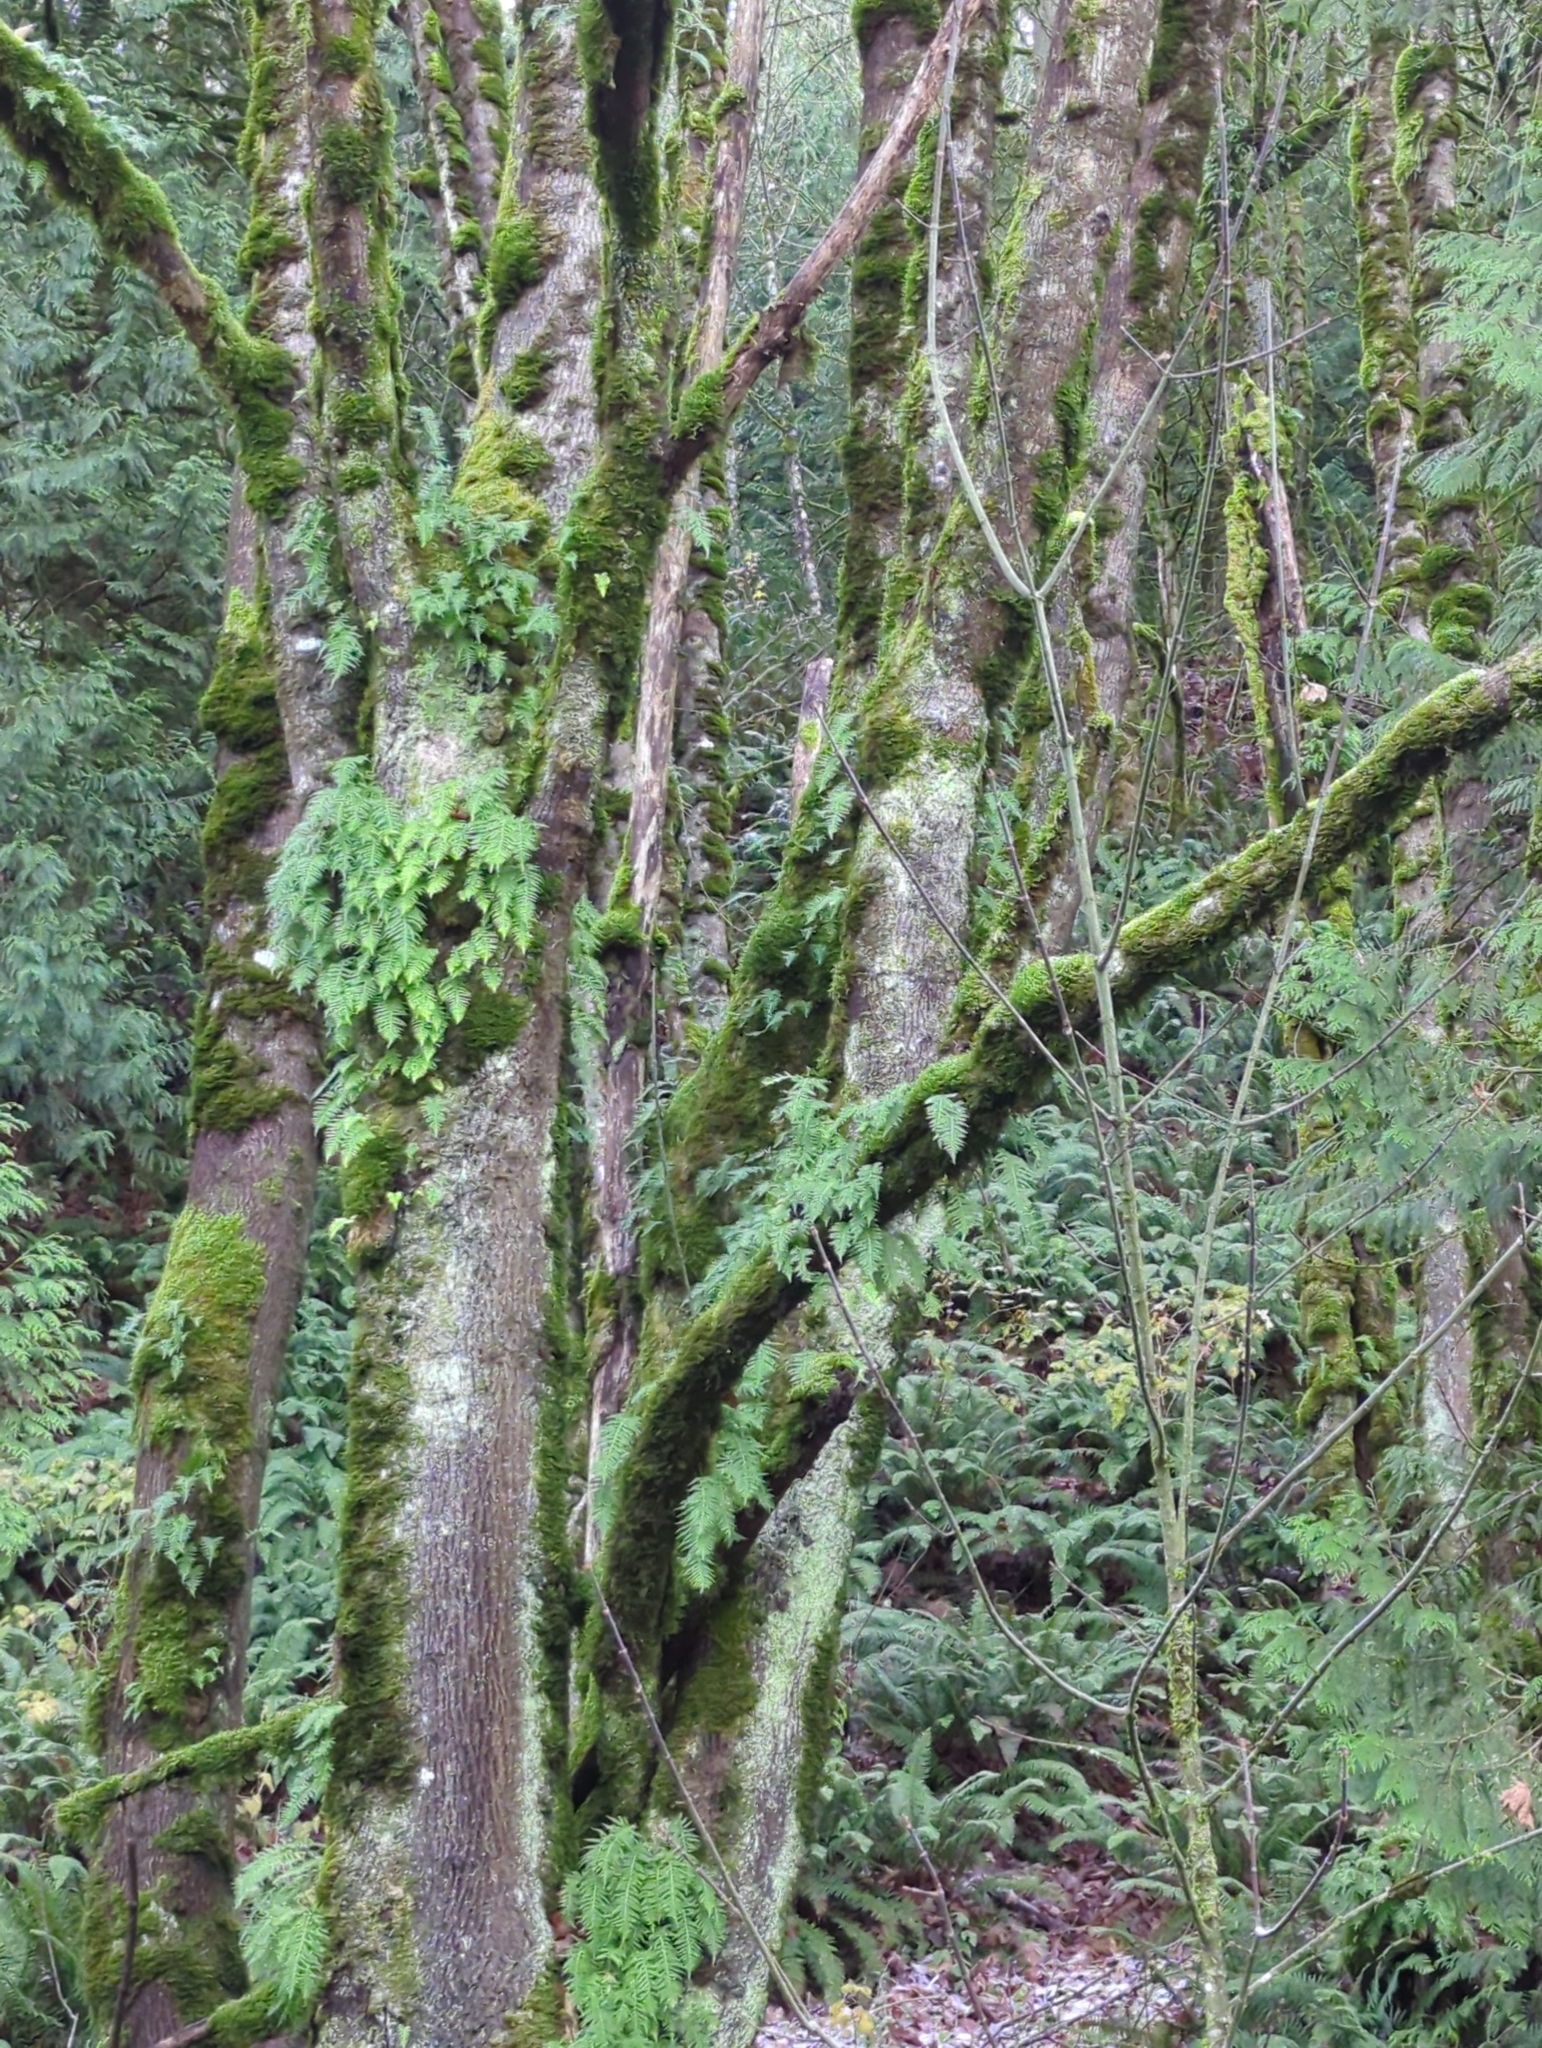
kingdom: Plantae
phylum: Tracheophyta
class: Polypodiopsida
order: Polypodiales
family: Polypodiaceae
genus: Polypodium
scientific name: Polypodium glycyrrhiza
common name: Licorice fern
